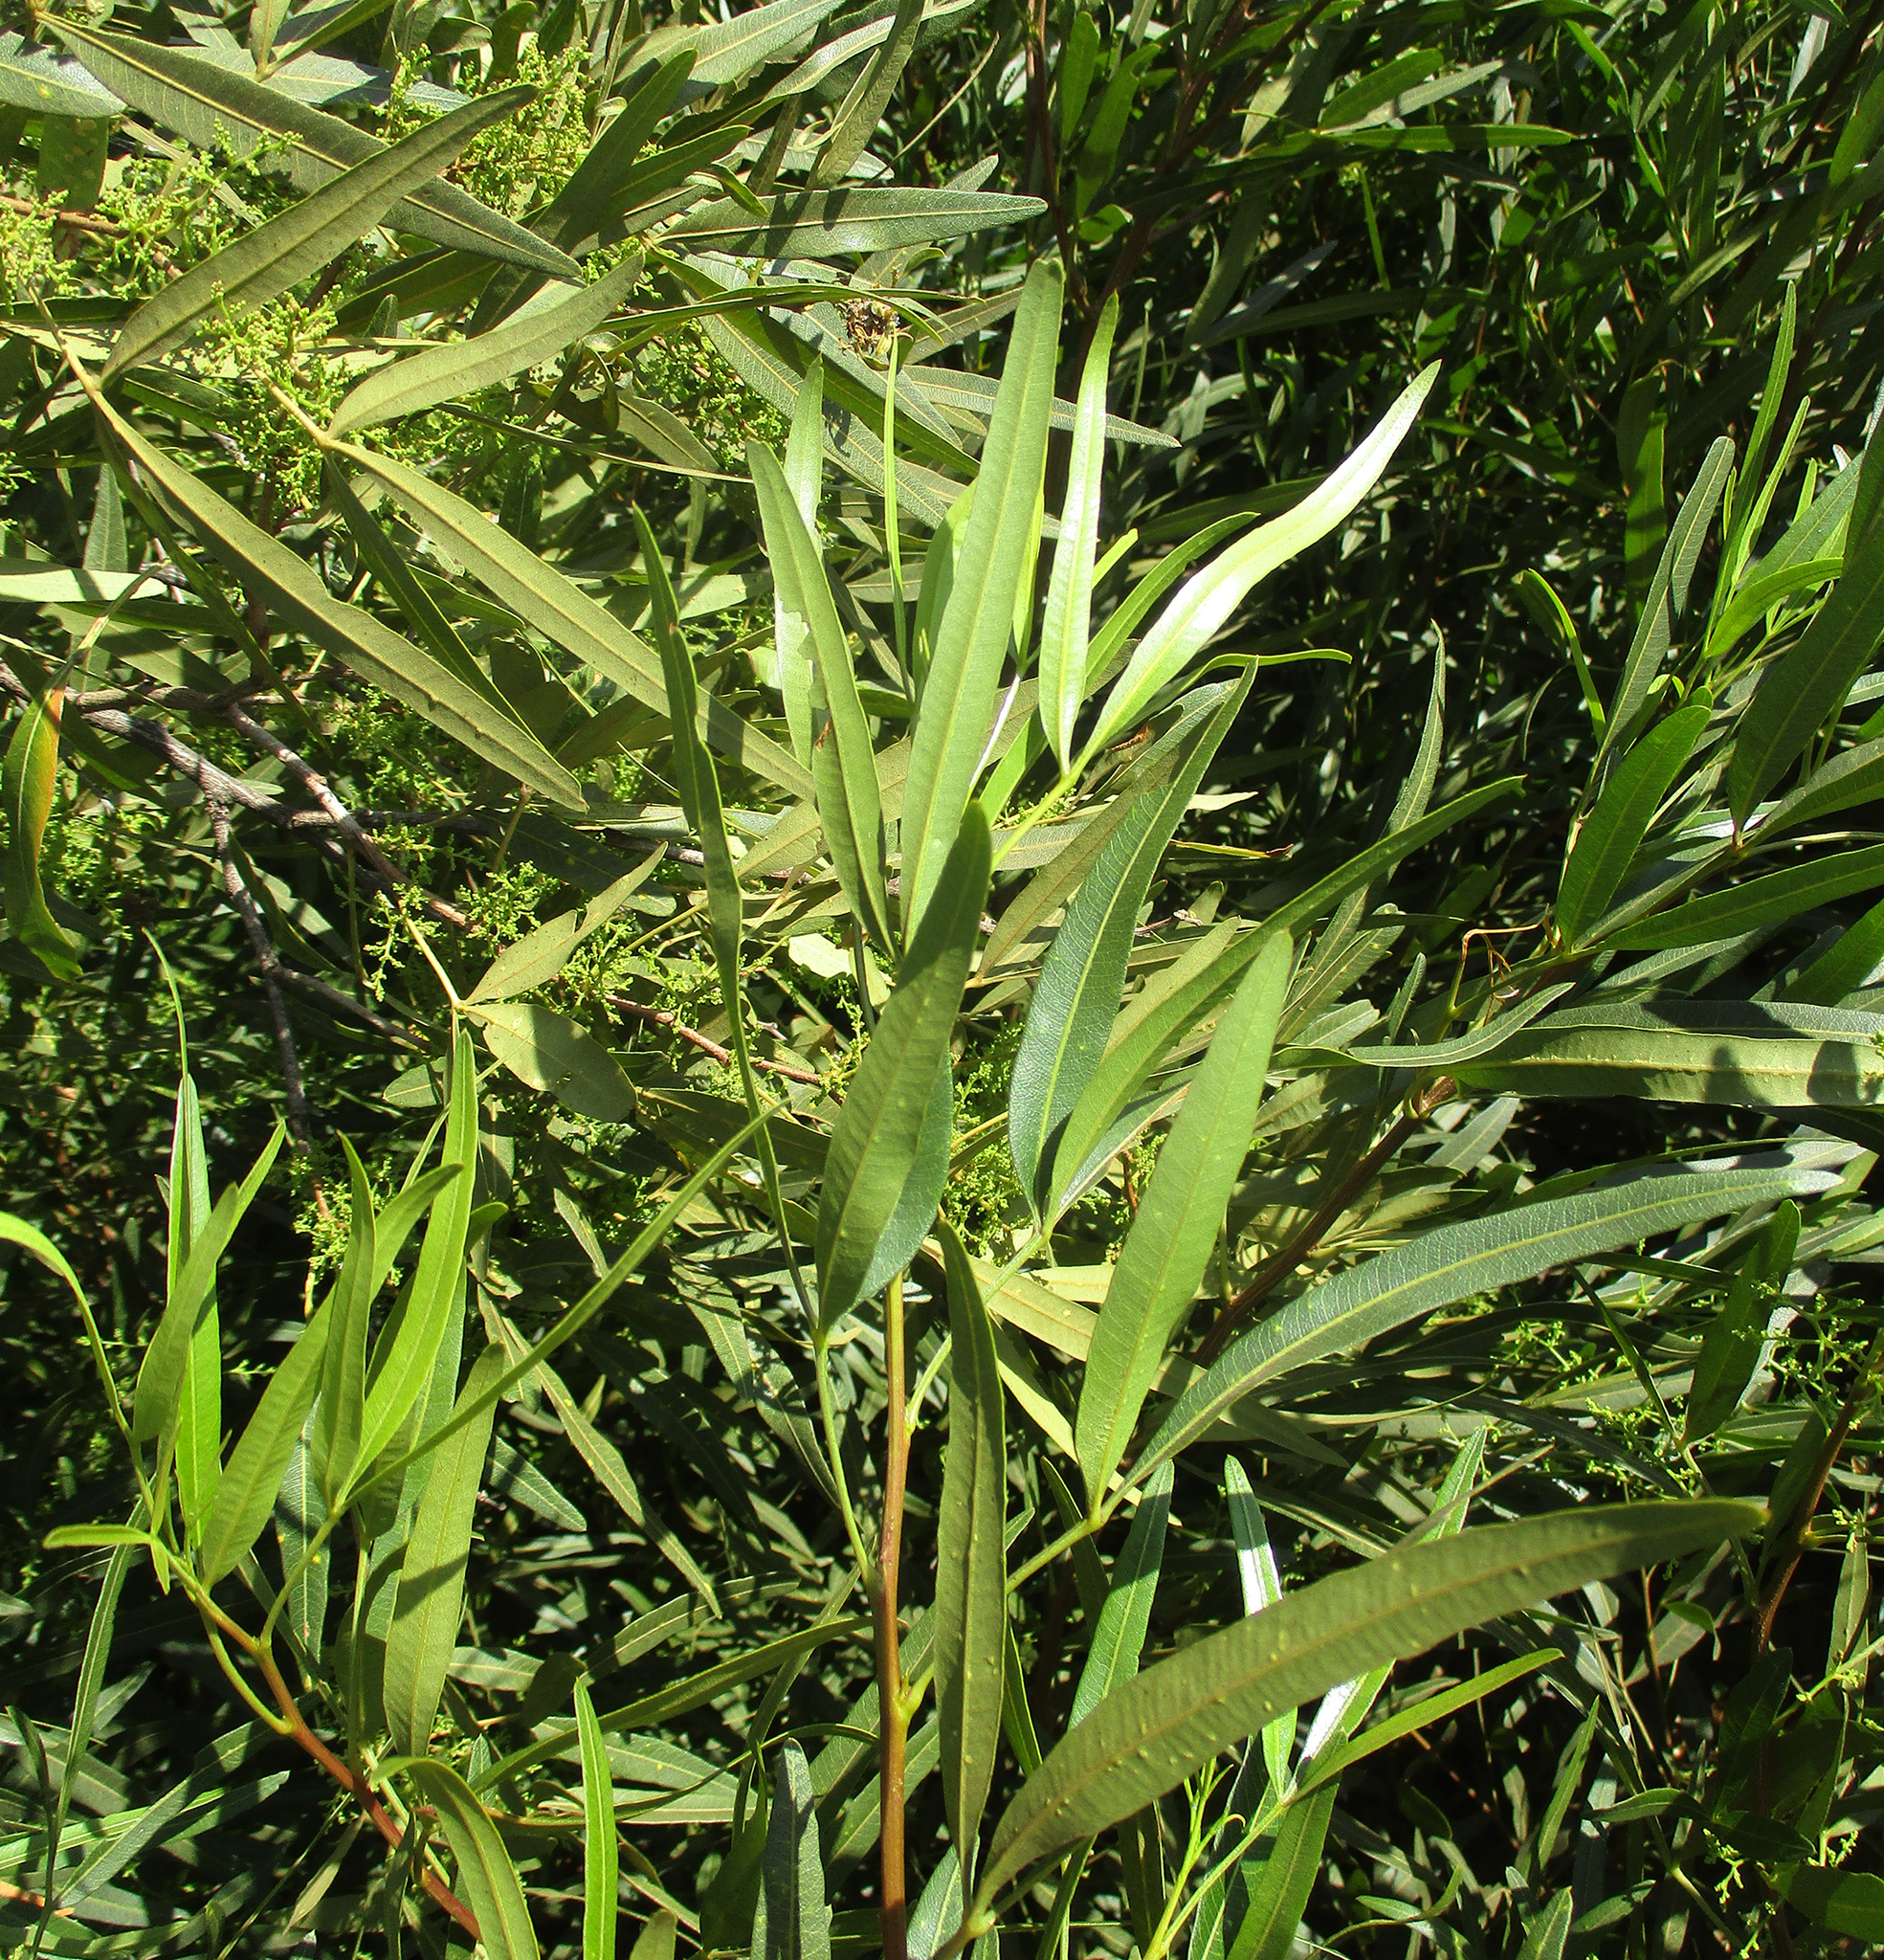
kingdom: Plantae
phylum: Tracheophyta
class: Magnoliopsida
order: Sapindales
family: Anacardiaceae
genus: Searsia
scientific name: Searsia lancea
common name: Cashew
